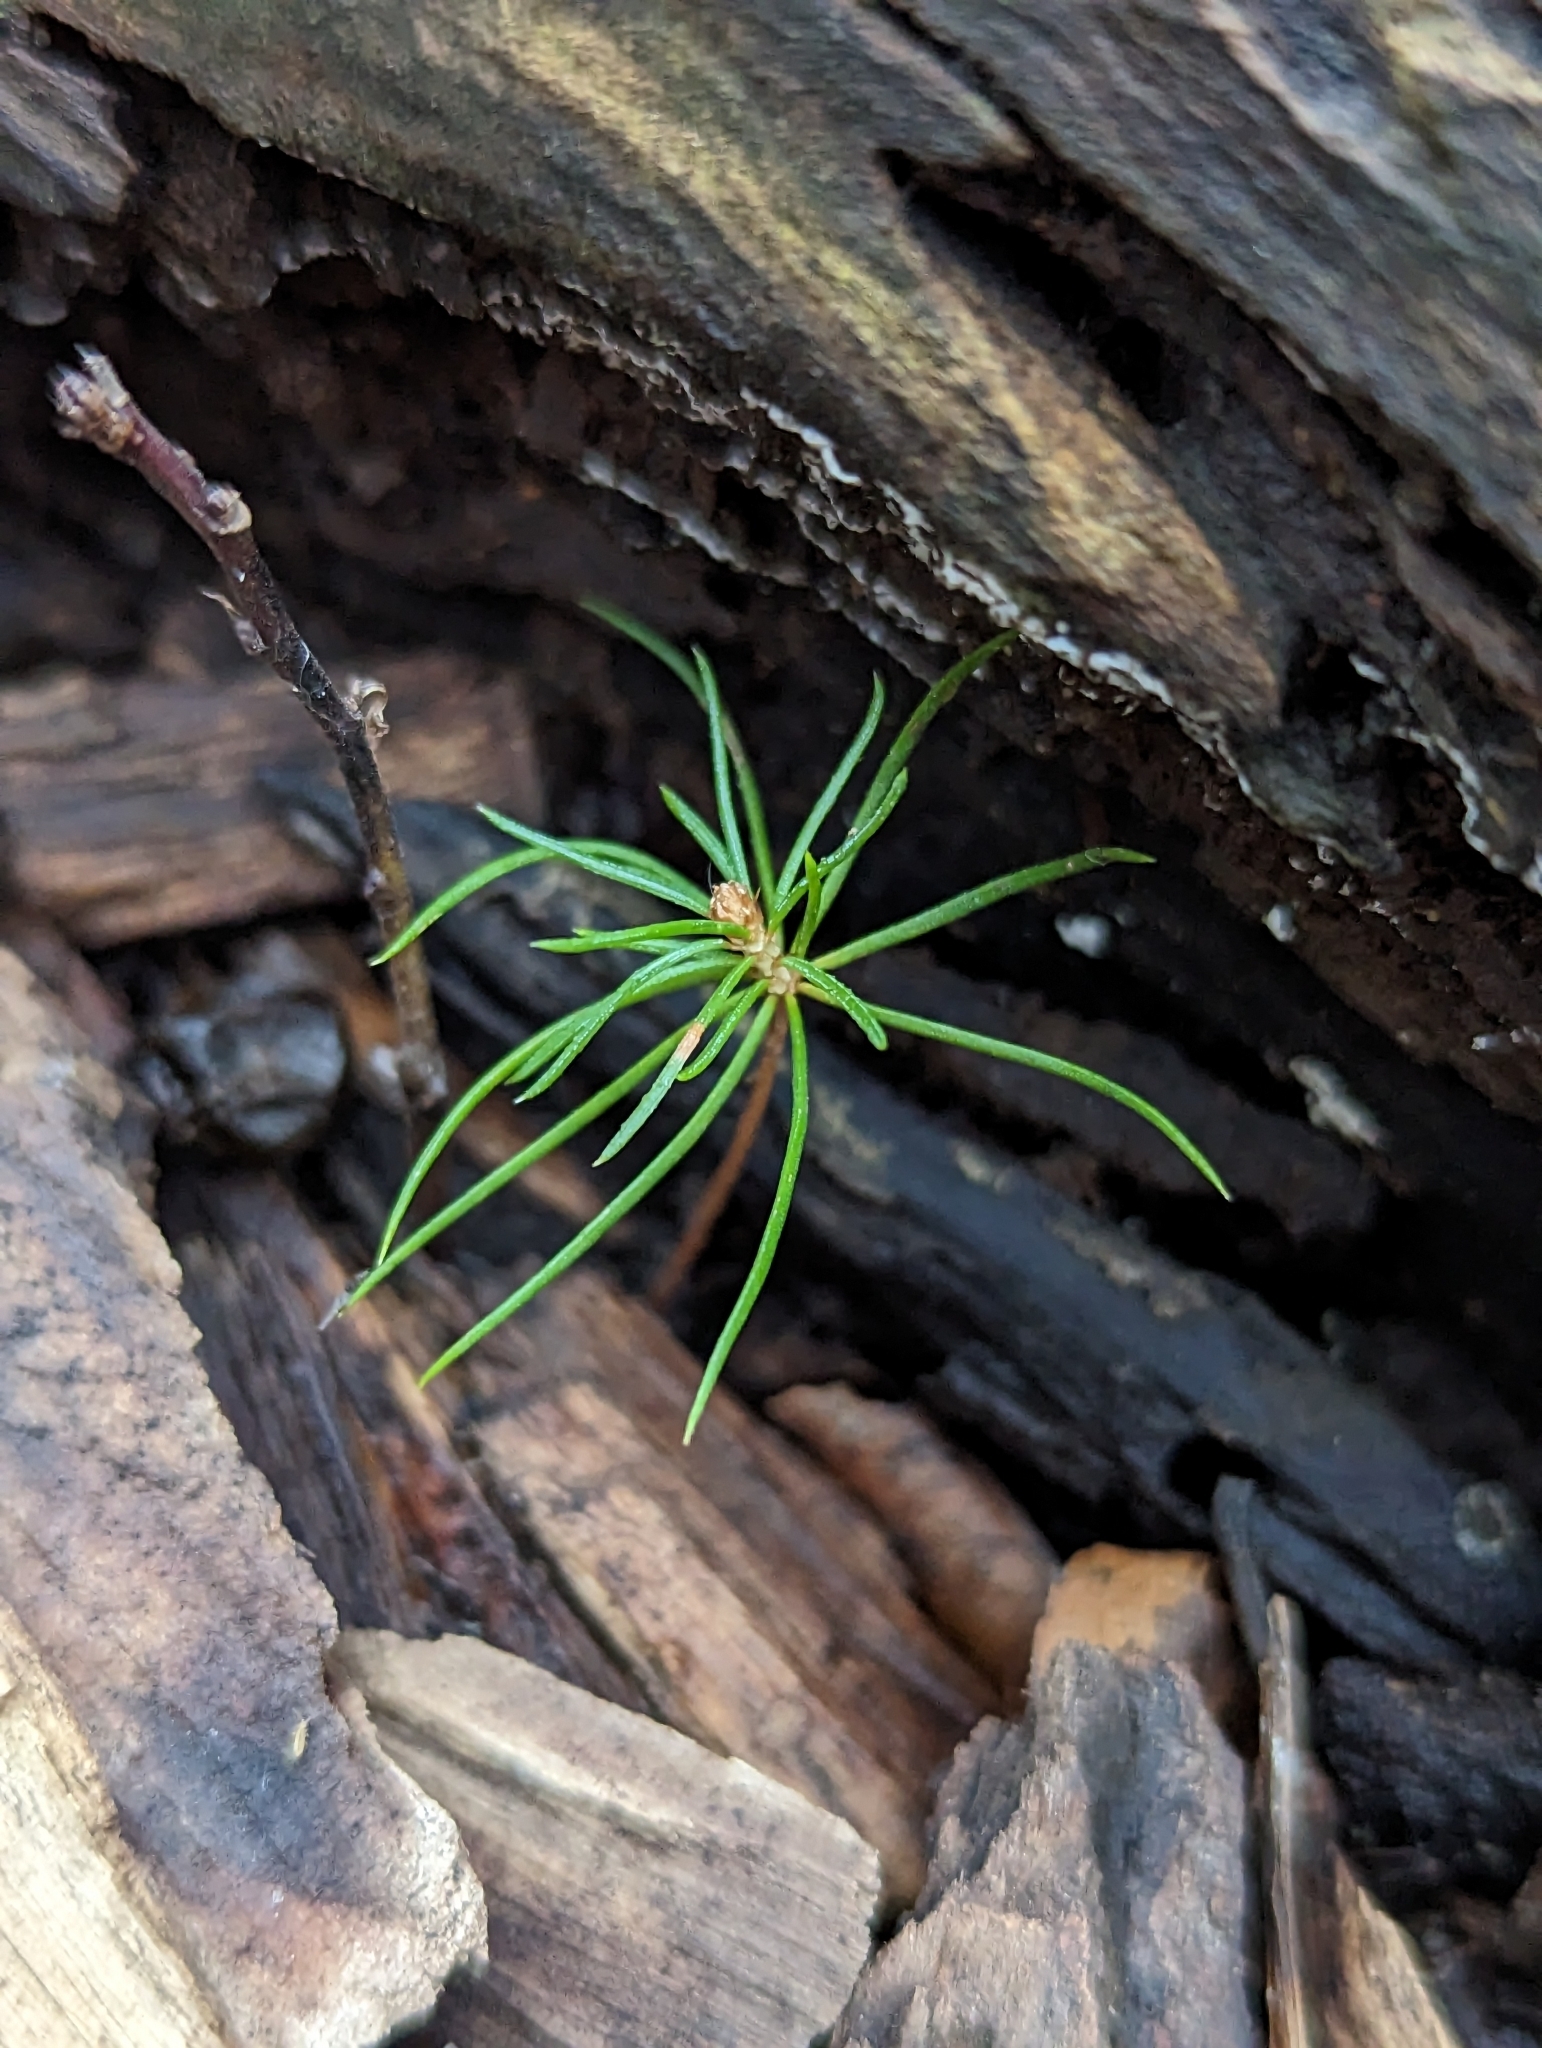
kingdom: Plantae
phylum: Tracheophyta
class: Pinopsida
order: Pinales
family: Pinaceae
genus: Pinus
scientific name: Pinus strobus
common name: Weymouth pine
